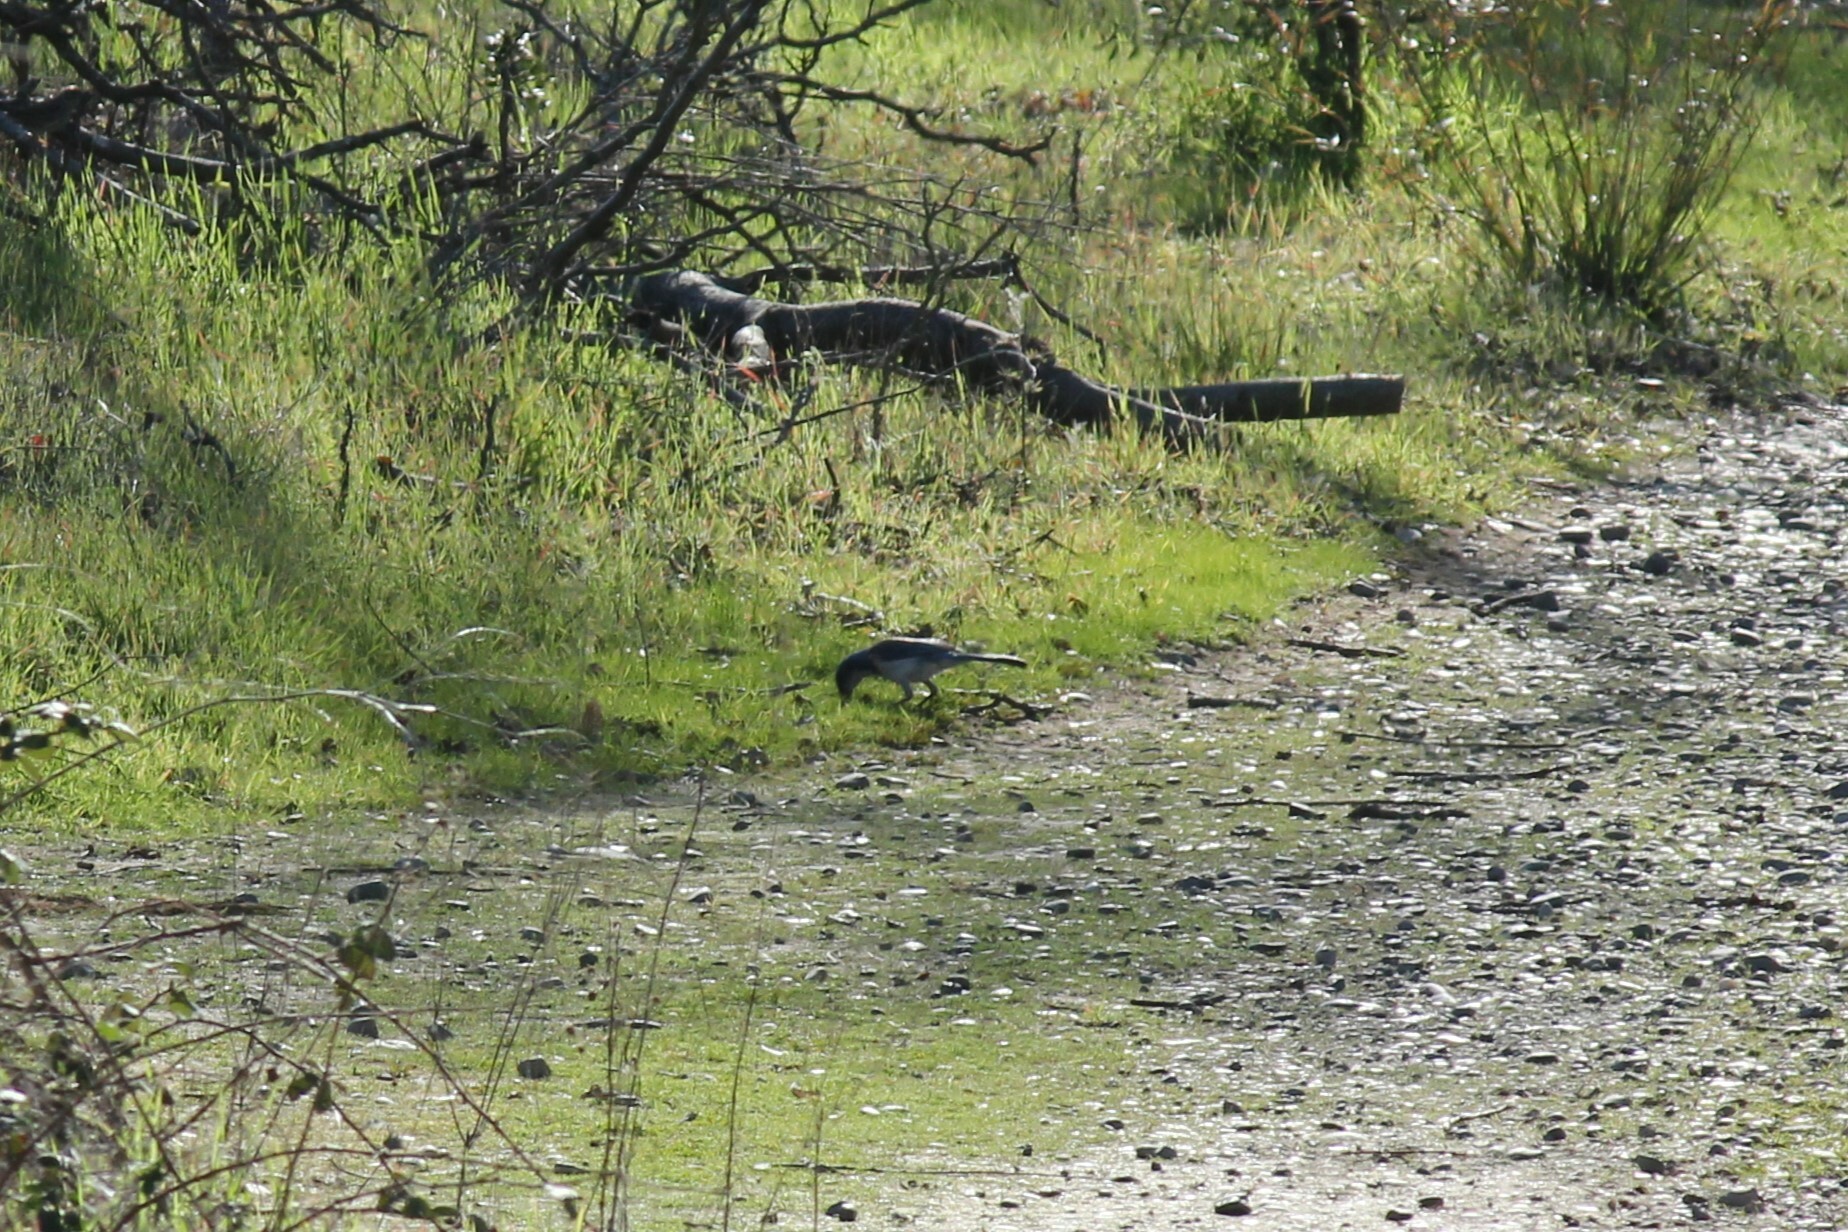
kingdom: Animalia
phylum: Chordata
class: Aves
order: Passeriformes
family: Corvidae
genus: Aphelocoma
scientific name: Aphelocoma californica
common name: California scrub-jay
